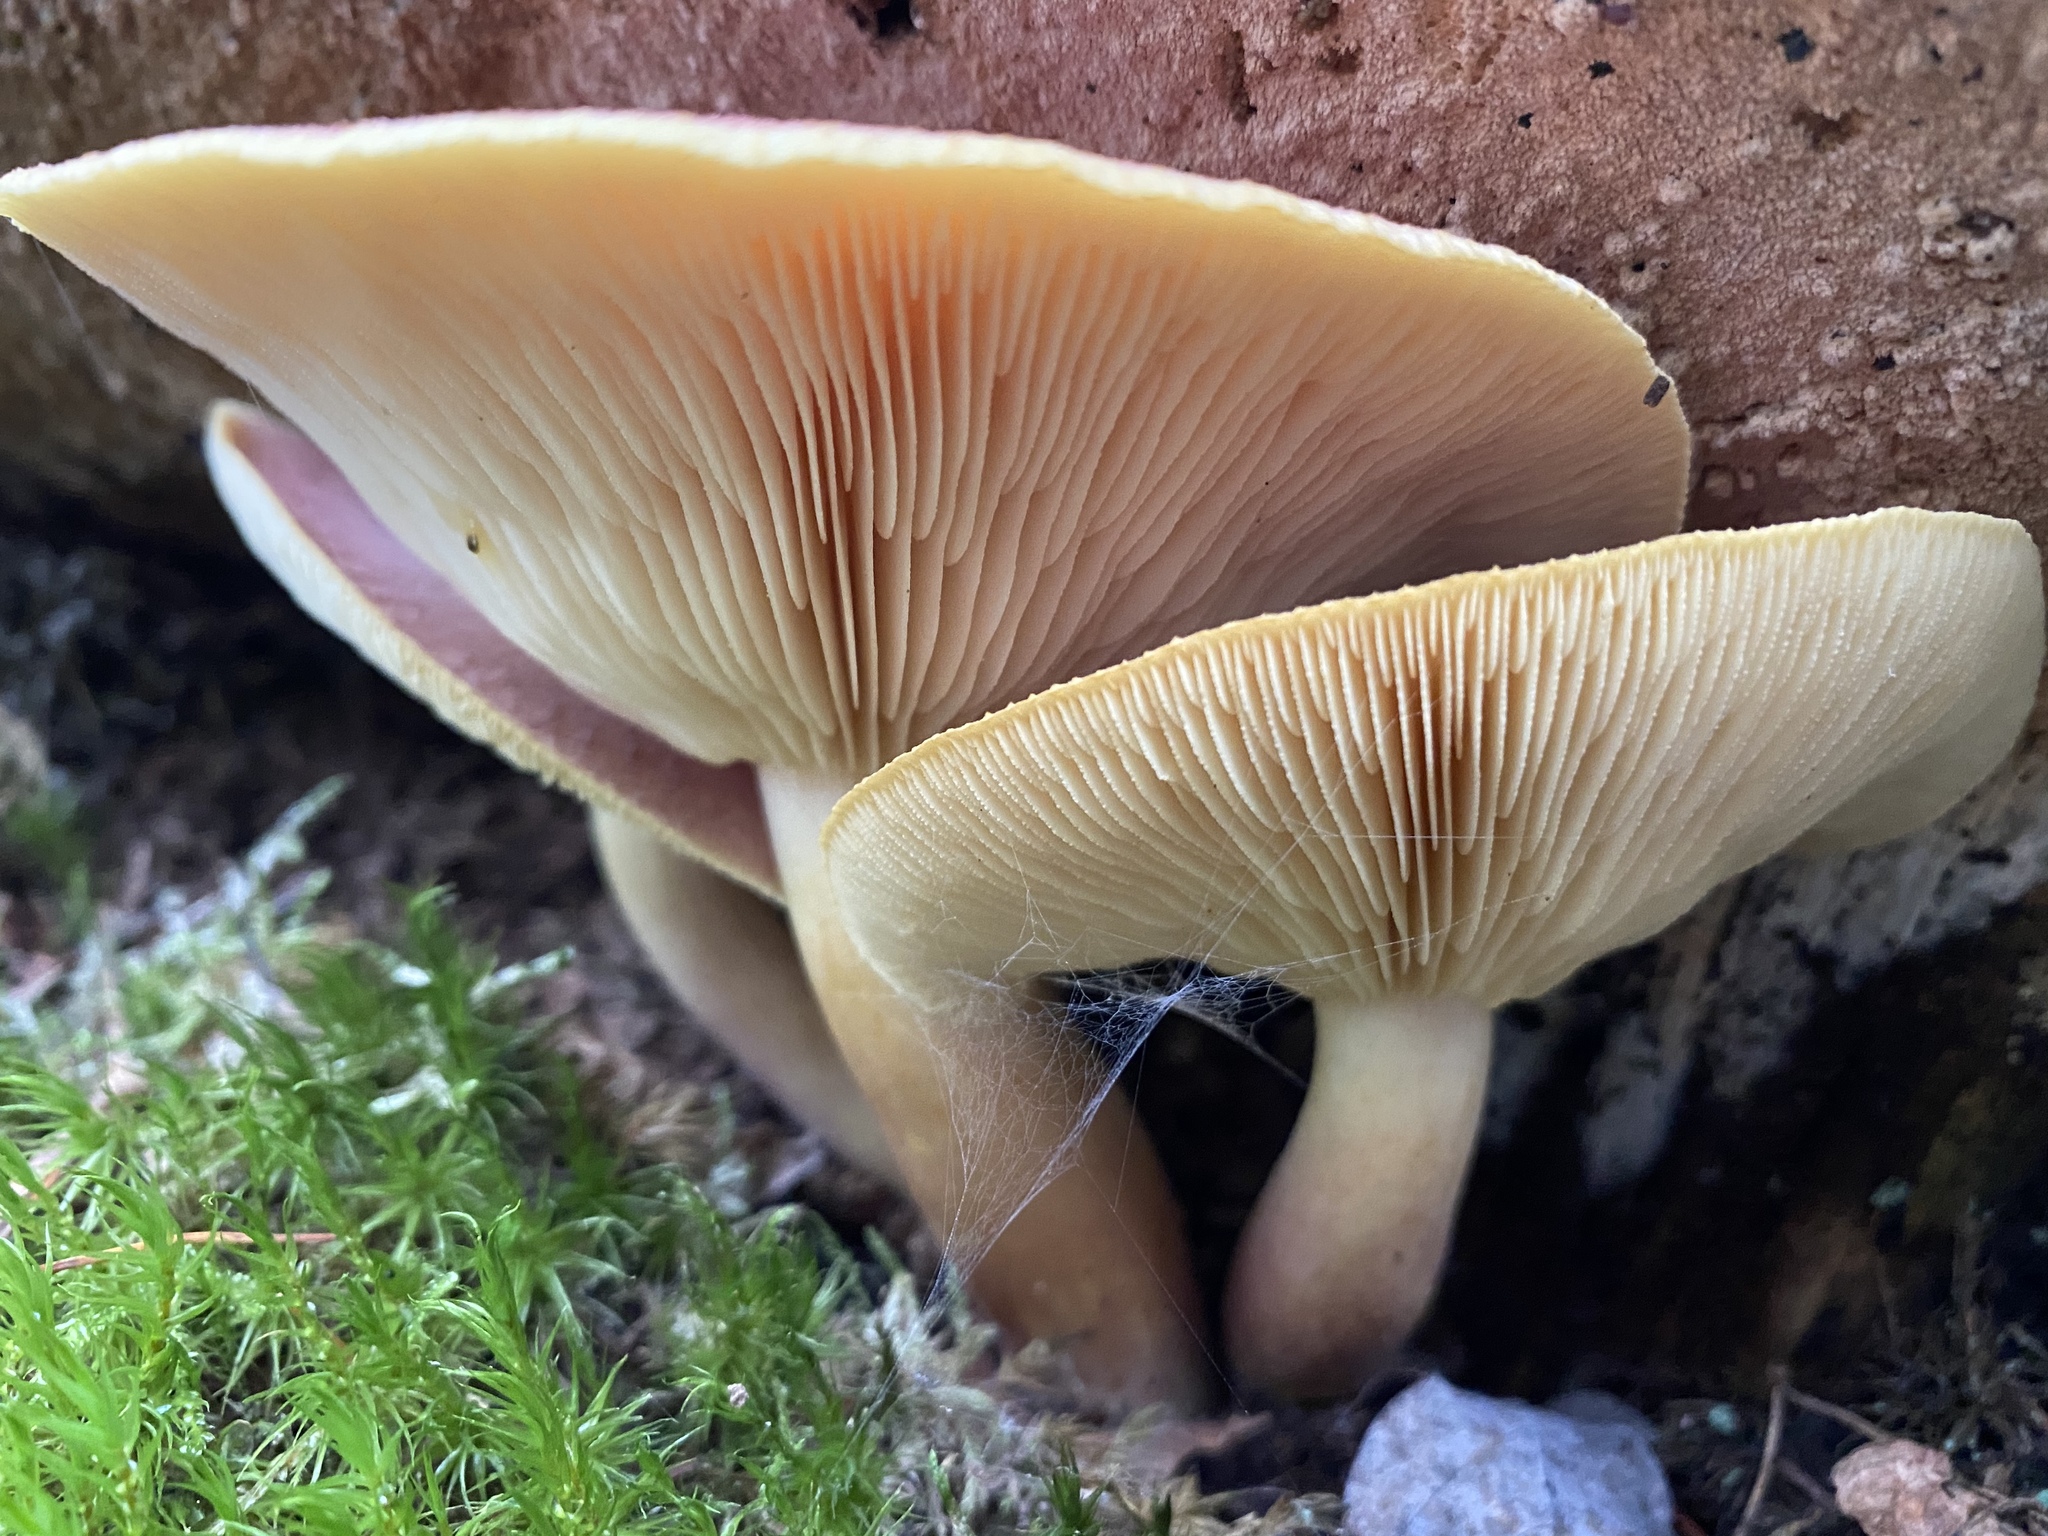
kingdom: Fungi
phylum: Basidiomycota
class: Agaricomycetes
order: Agaricales
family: Tricholomataceae
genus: Tricholomopsis
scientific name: Tricholomopsis rutilans
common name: Plums and custard
